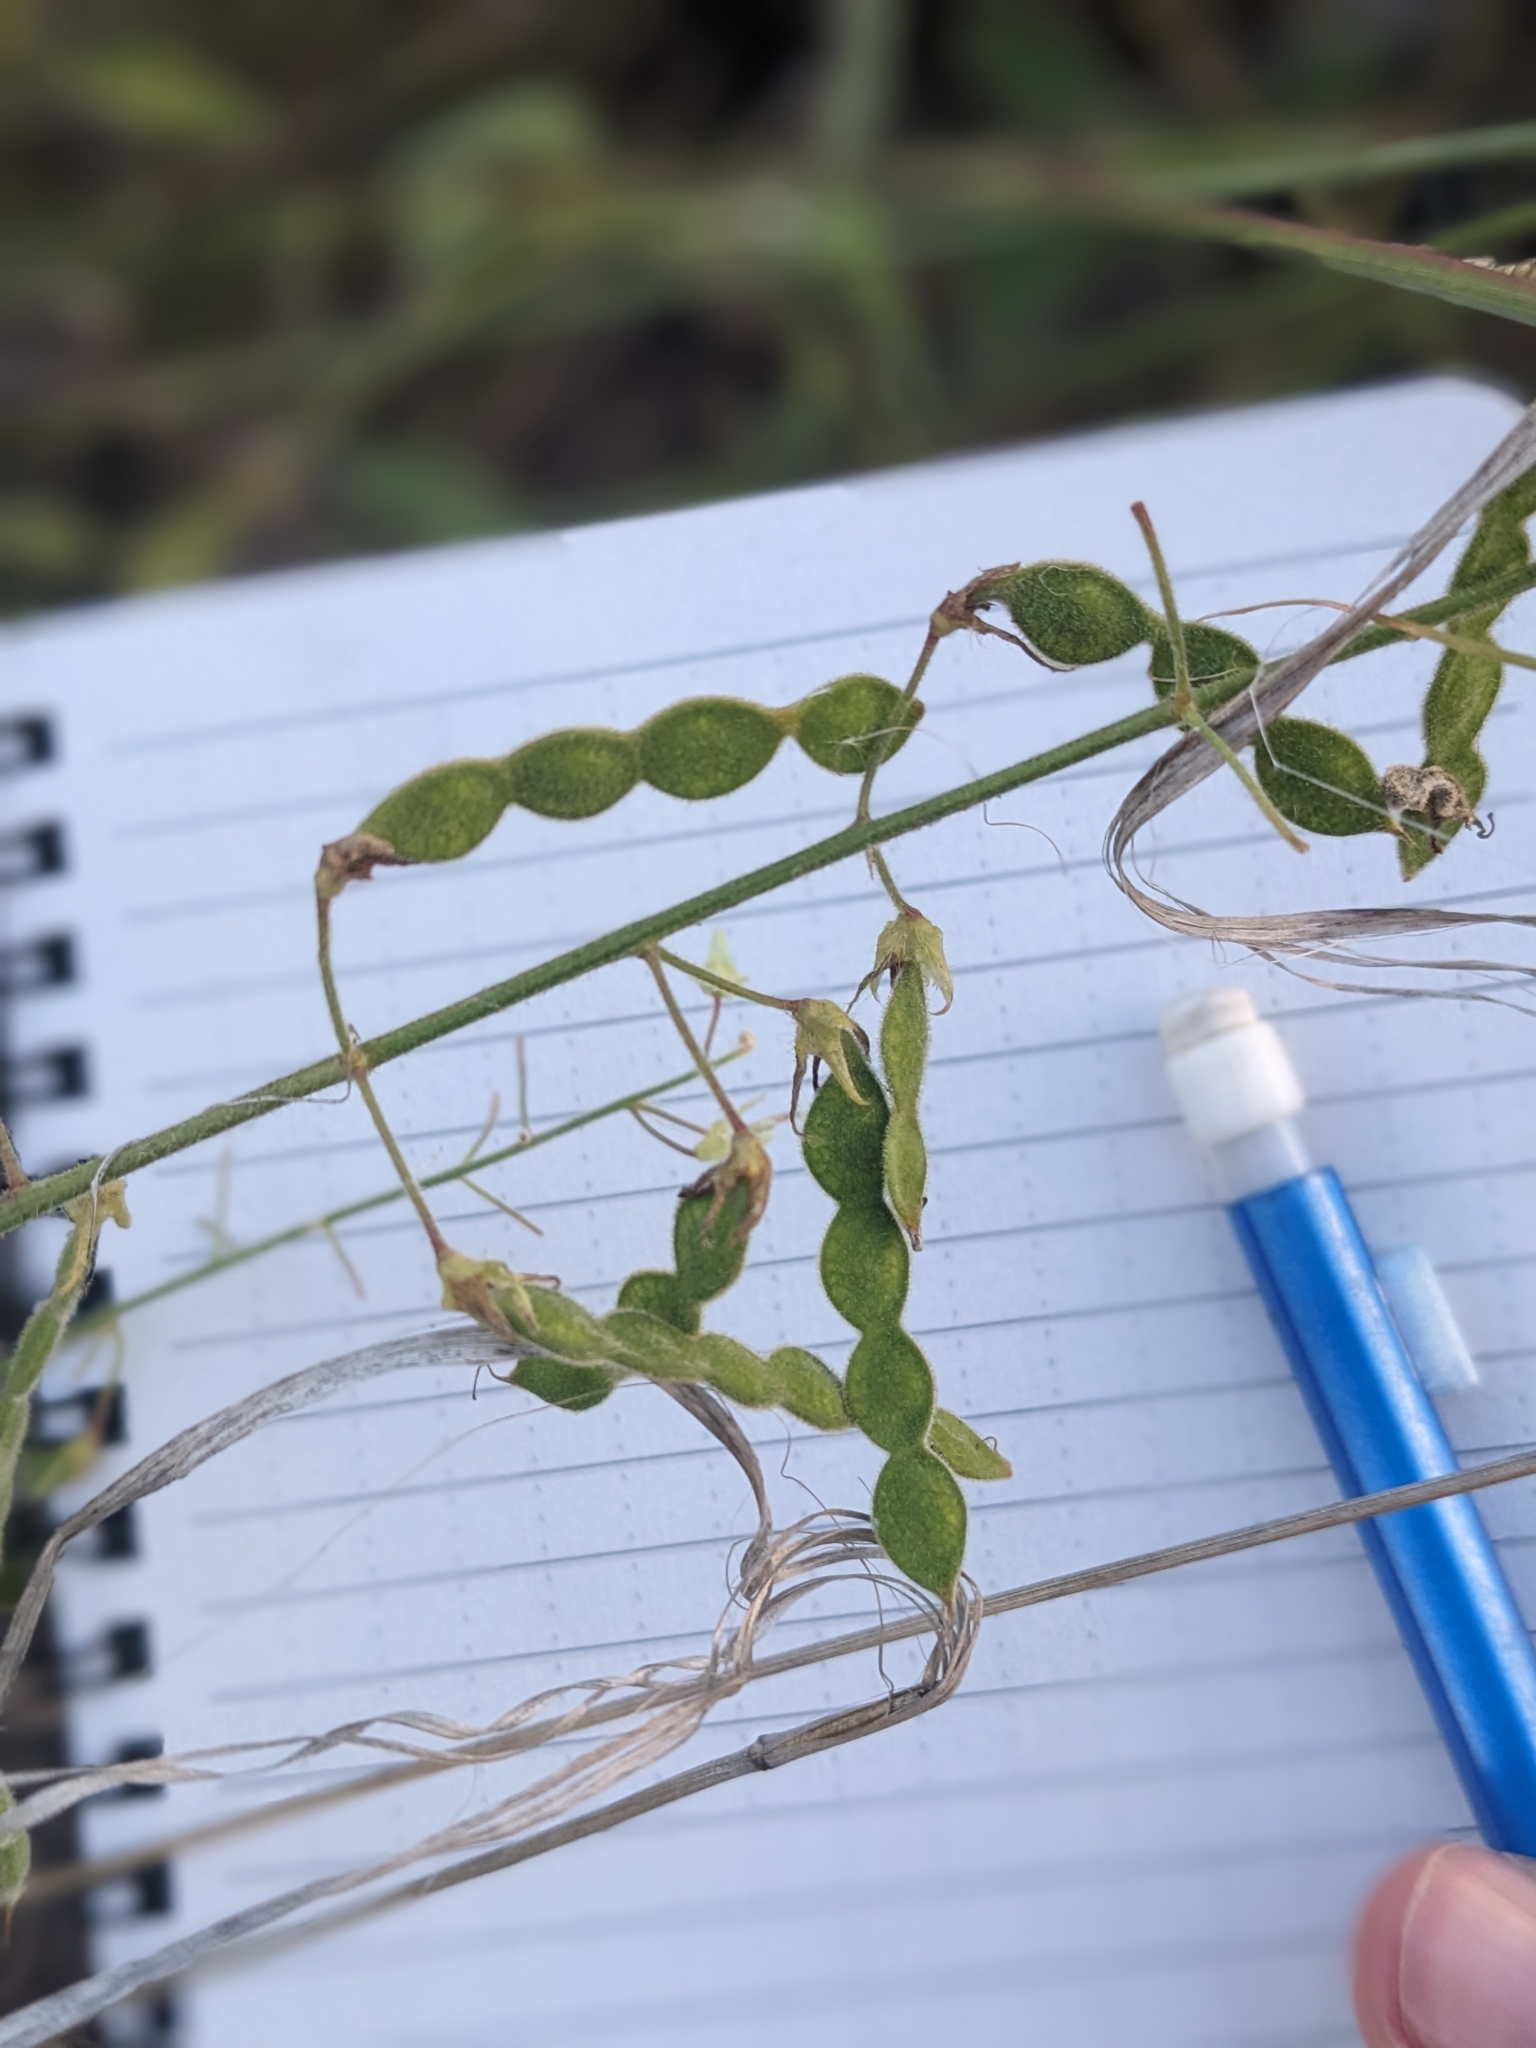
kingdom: Plantae
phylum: Tracheophyta
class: Magnoliopsida
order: Fabales
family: Fabaceae
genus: Desmodium
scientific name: Desmodium canescens
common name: Hoary tick-clover
